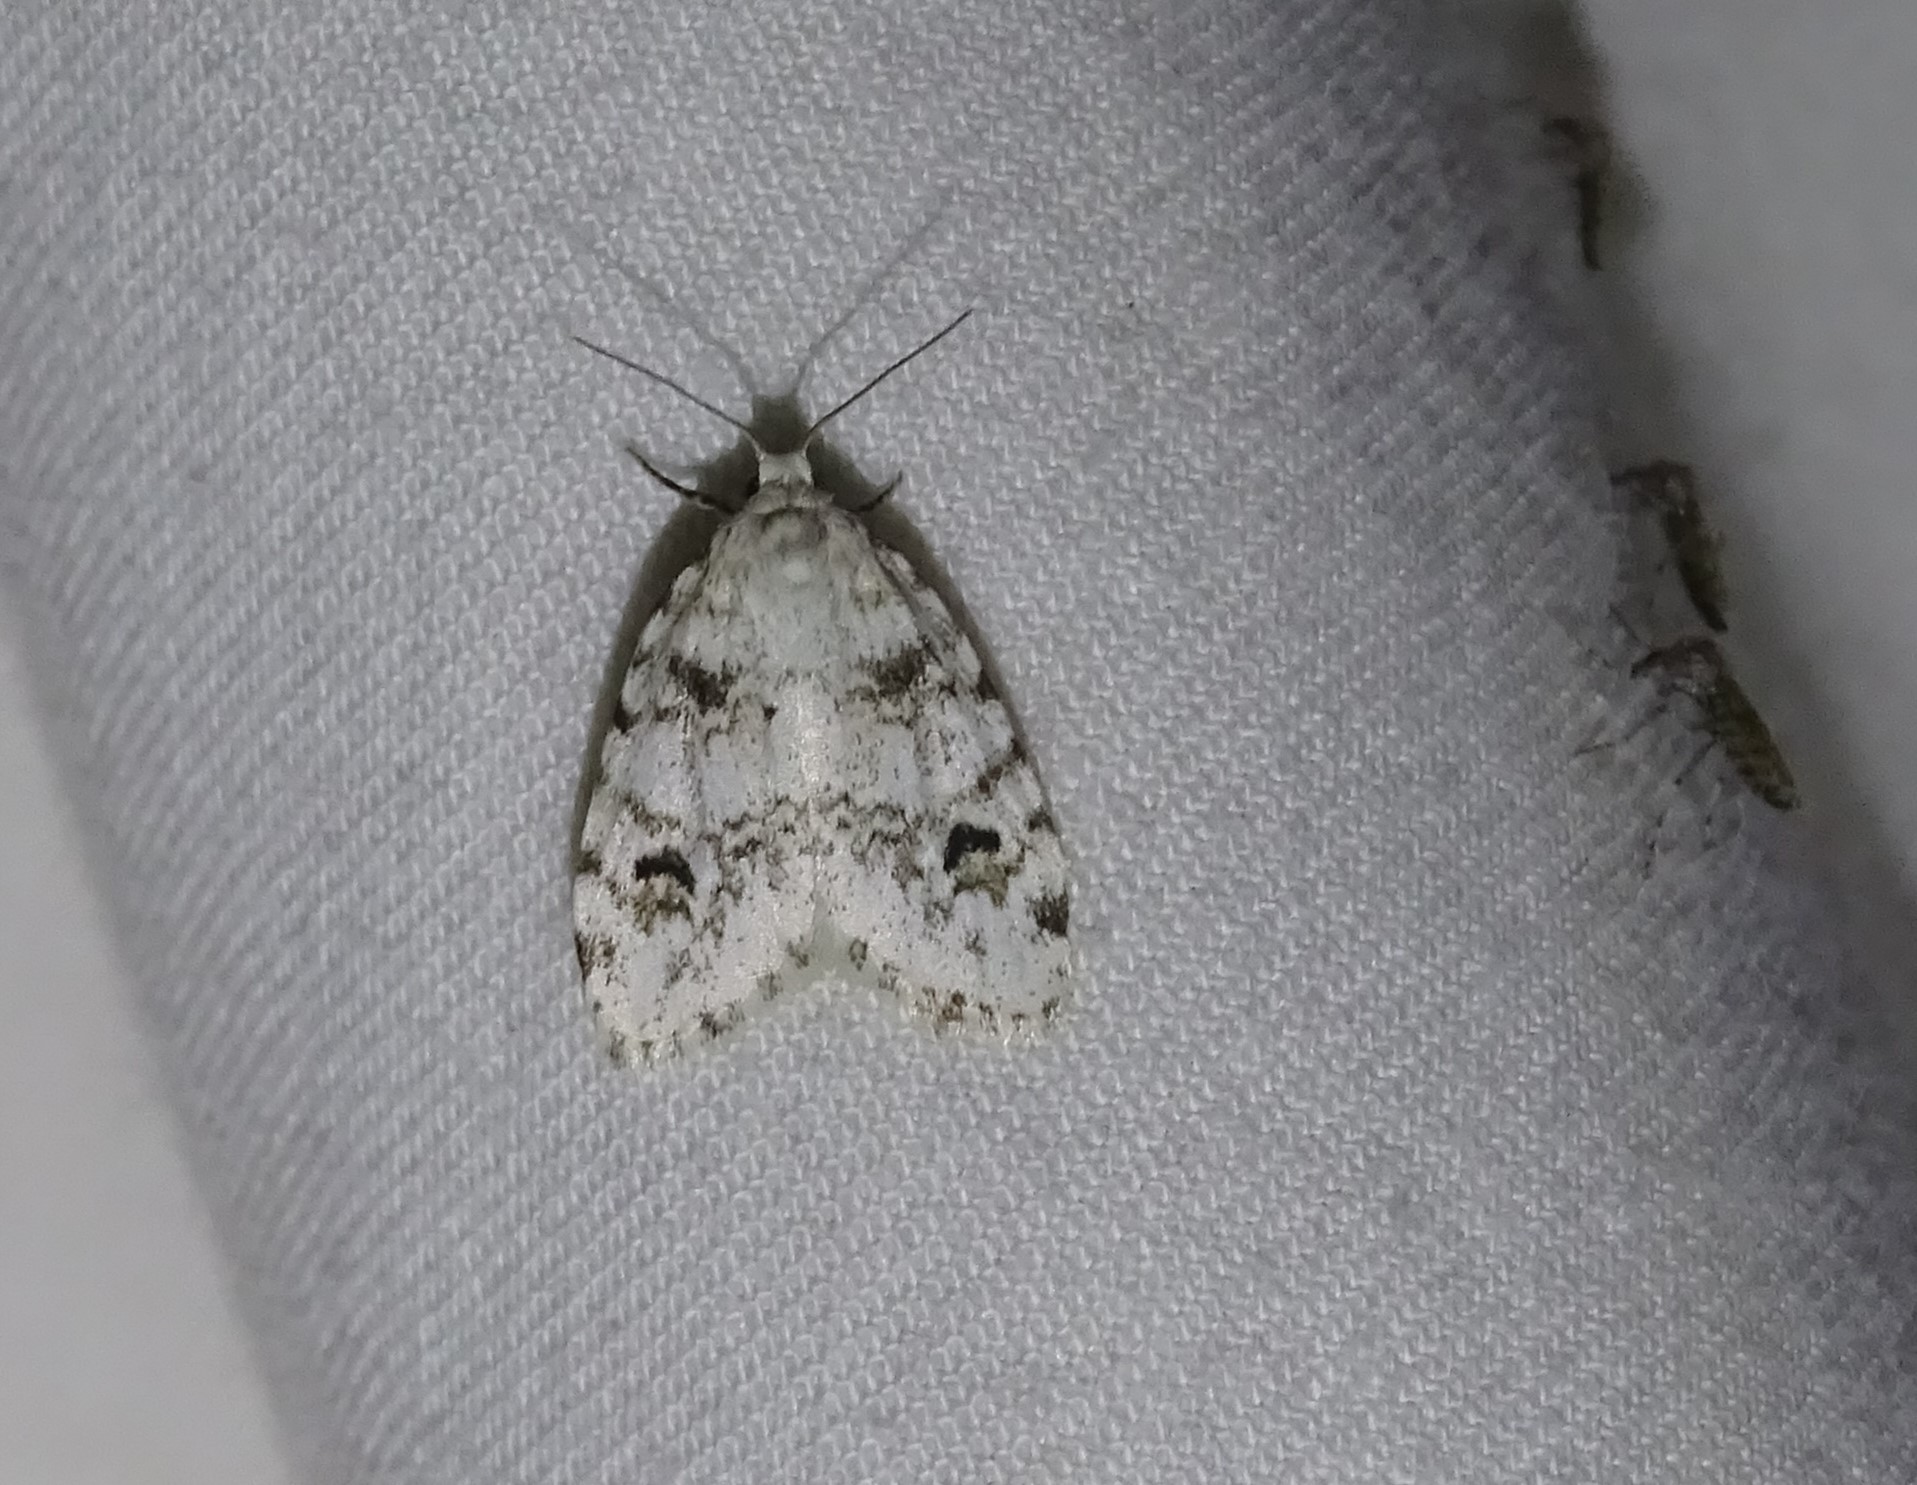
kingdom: Animalia
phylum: Arthropoda
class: Insecta
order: Lepidoptera
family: Erebidae
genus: Clemensia
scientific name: Clemensia ochreata
